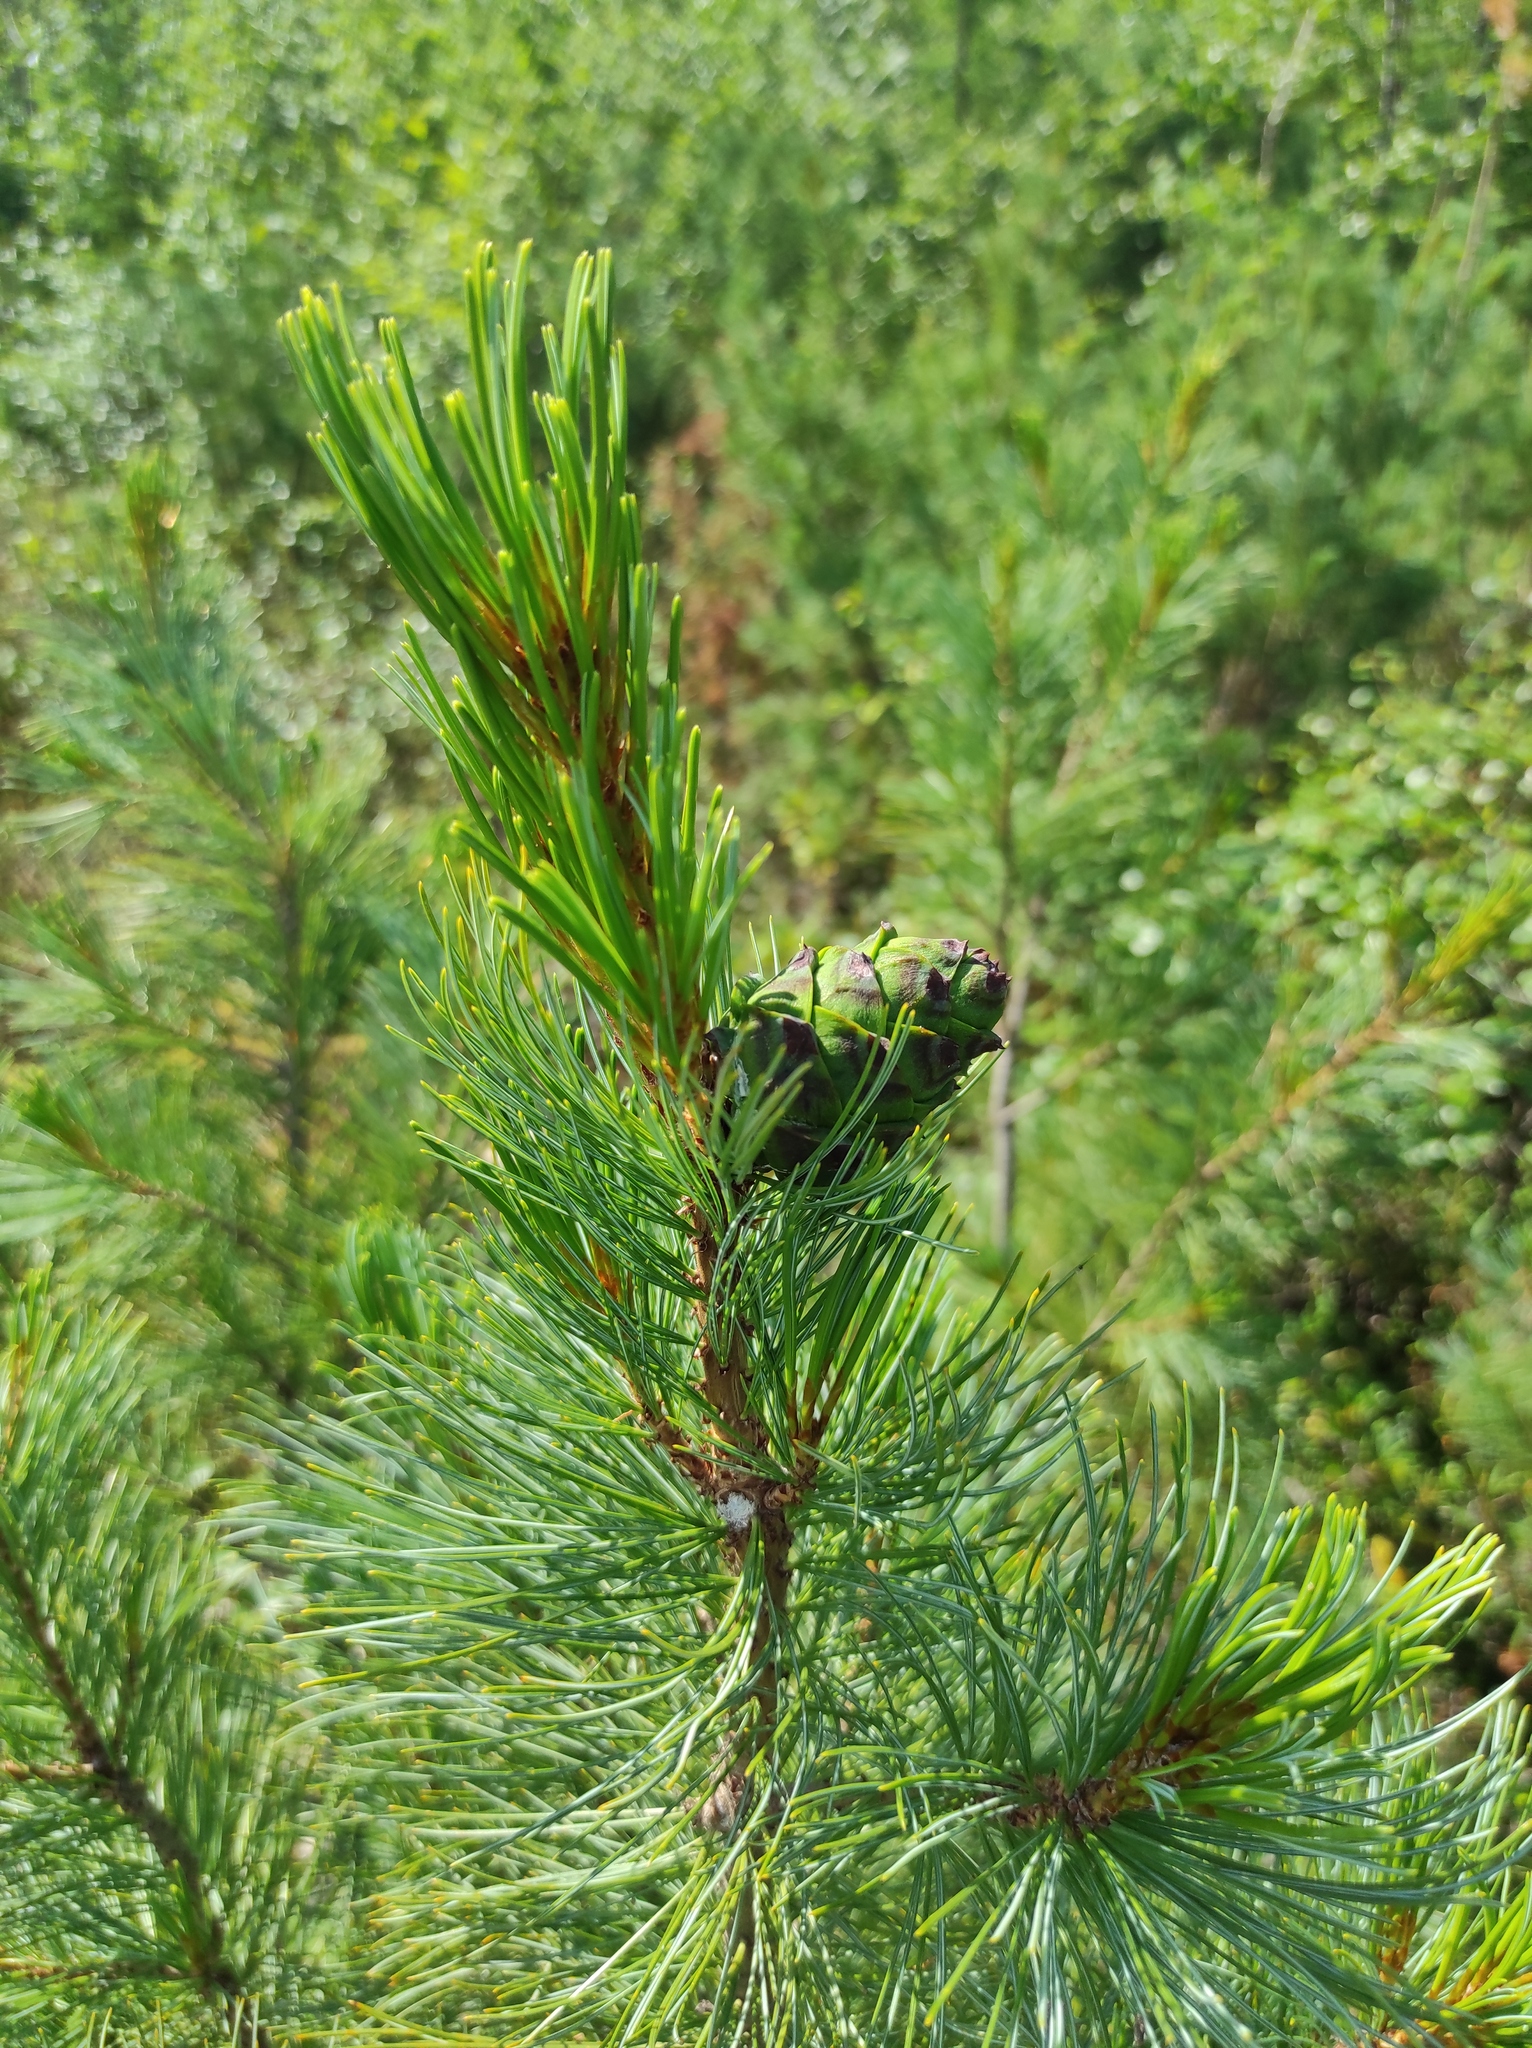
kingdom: Plantae
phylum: Tracheophyta
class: Pinopsida
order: Pinales
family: Pinaceae
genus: Pinus
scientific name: Pinus pumila
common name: Dwarf siberian pine
